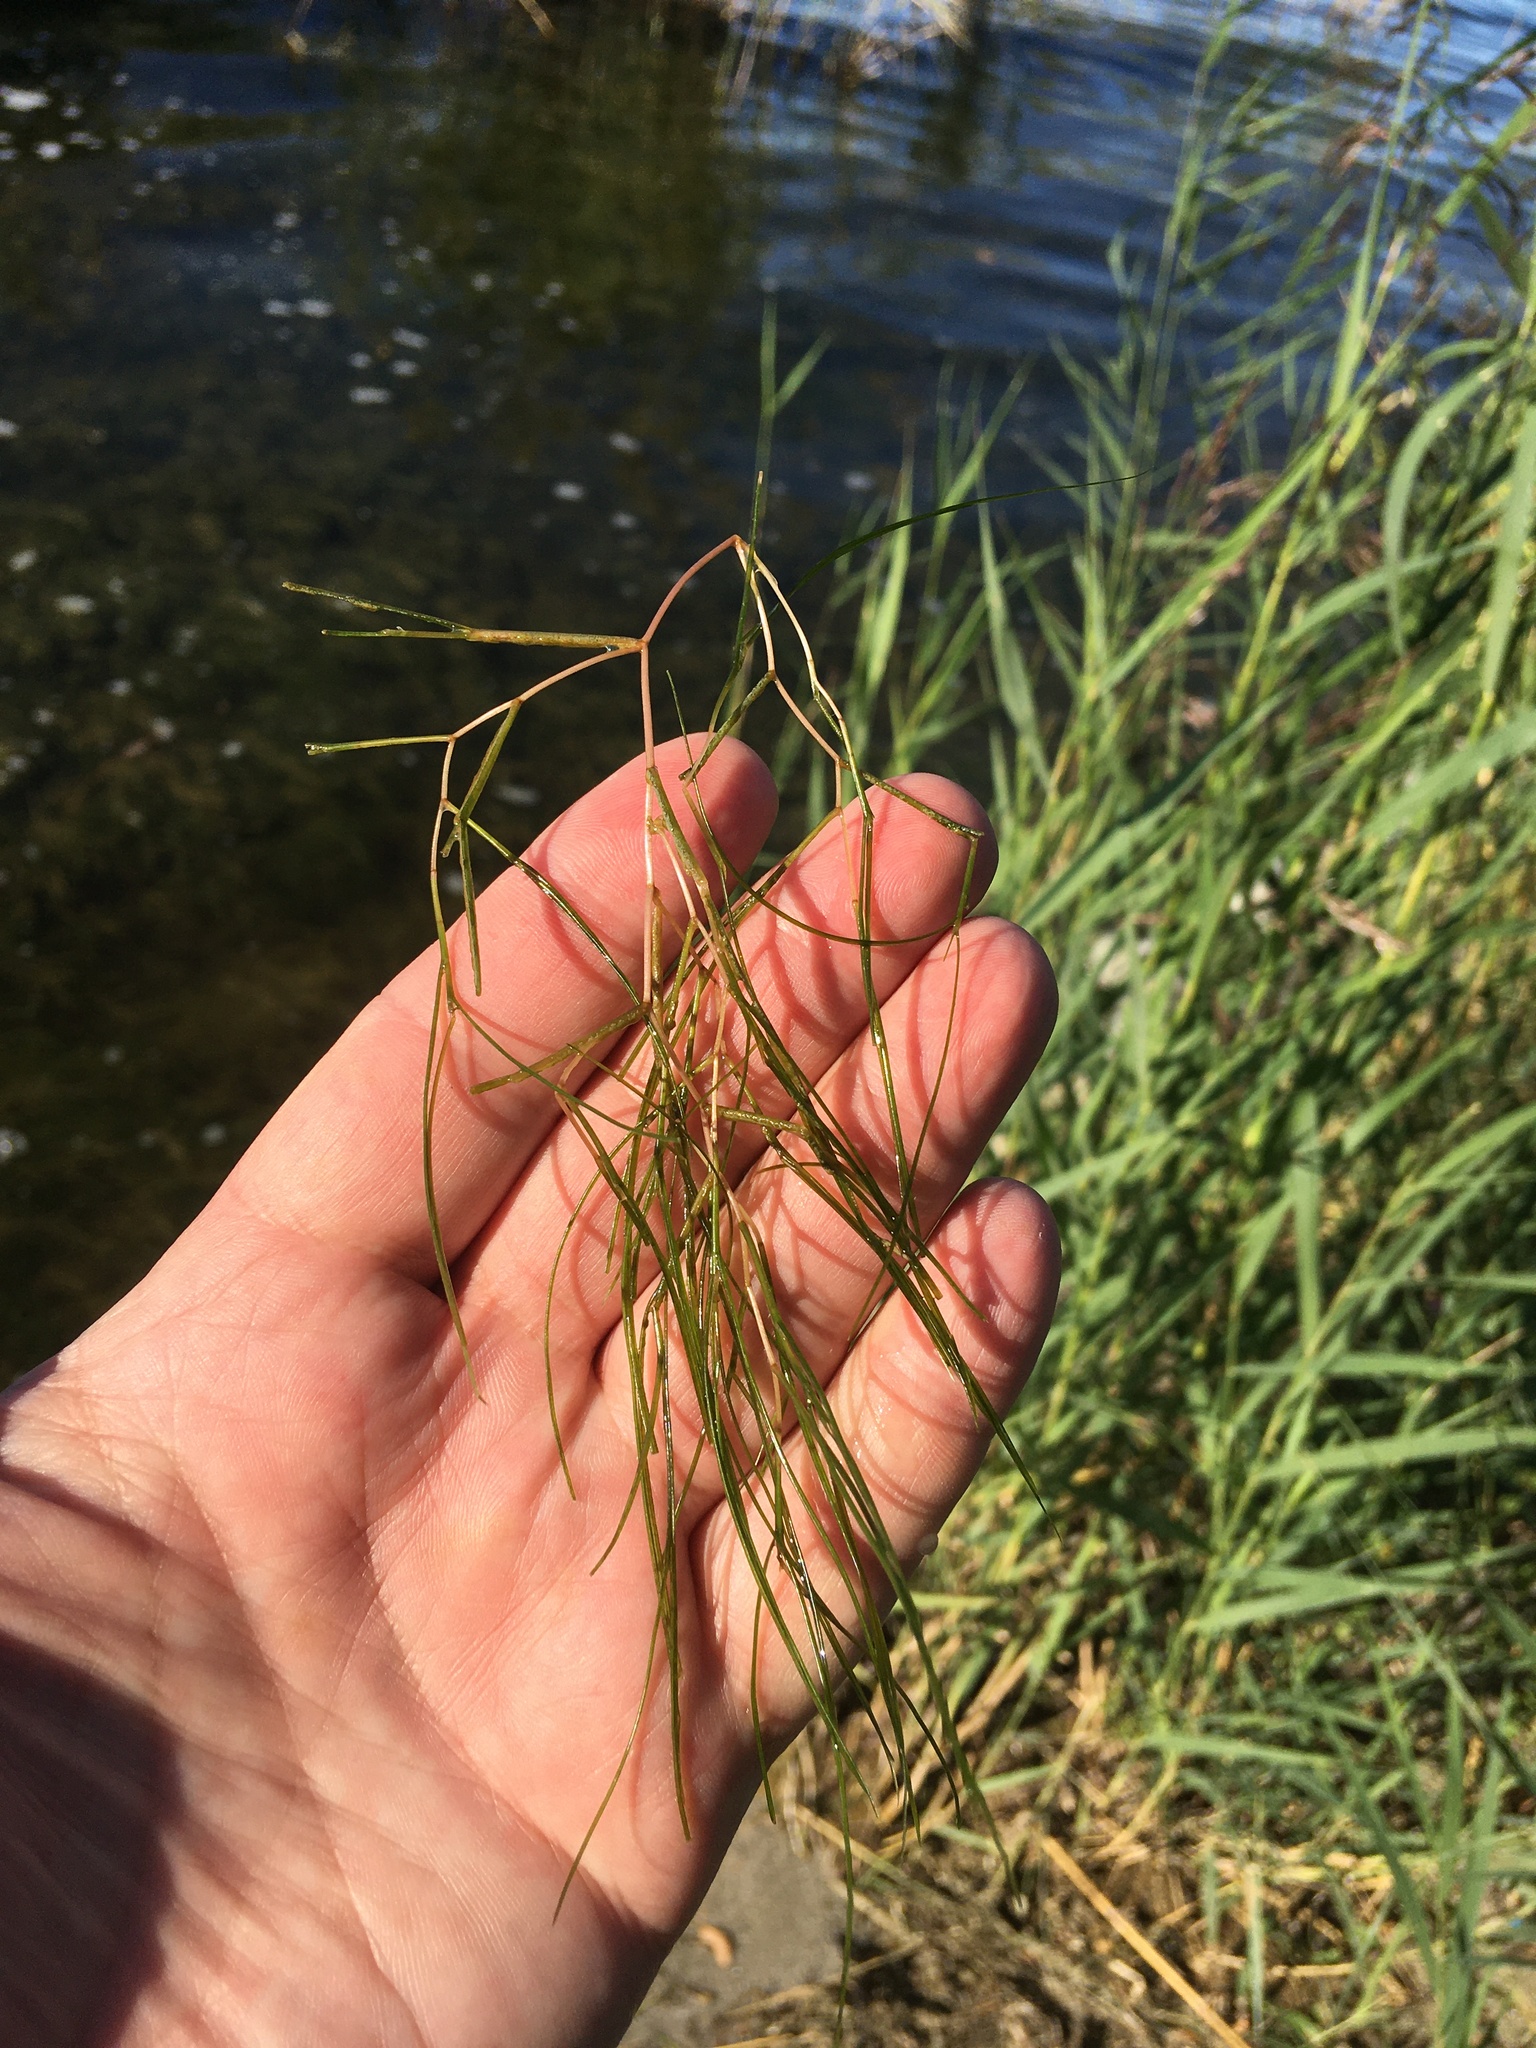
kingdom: Plantae
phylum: Tracheophyta
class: Liliopsida
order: Alismatales
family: Potamogetonaceae
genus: Stuckenia
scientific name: Stuckenia pectinata
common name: Sago pondweed
